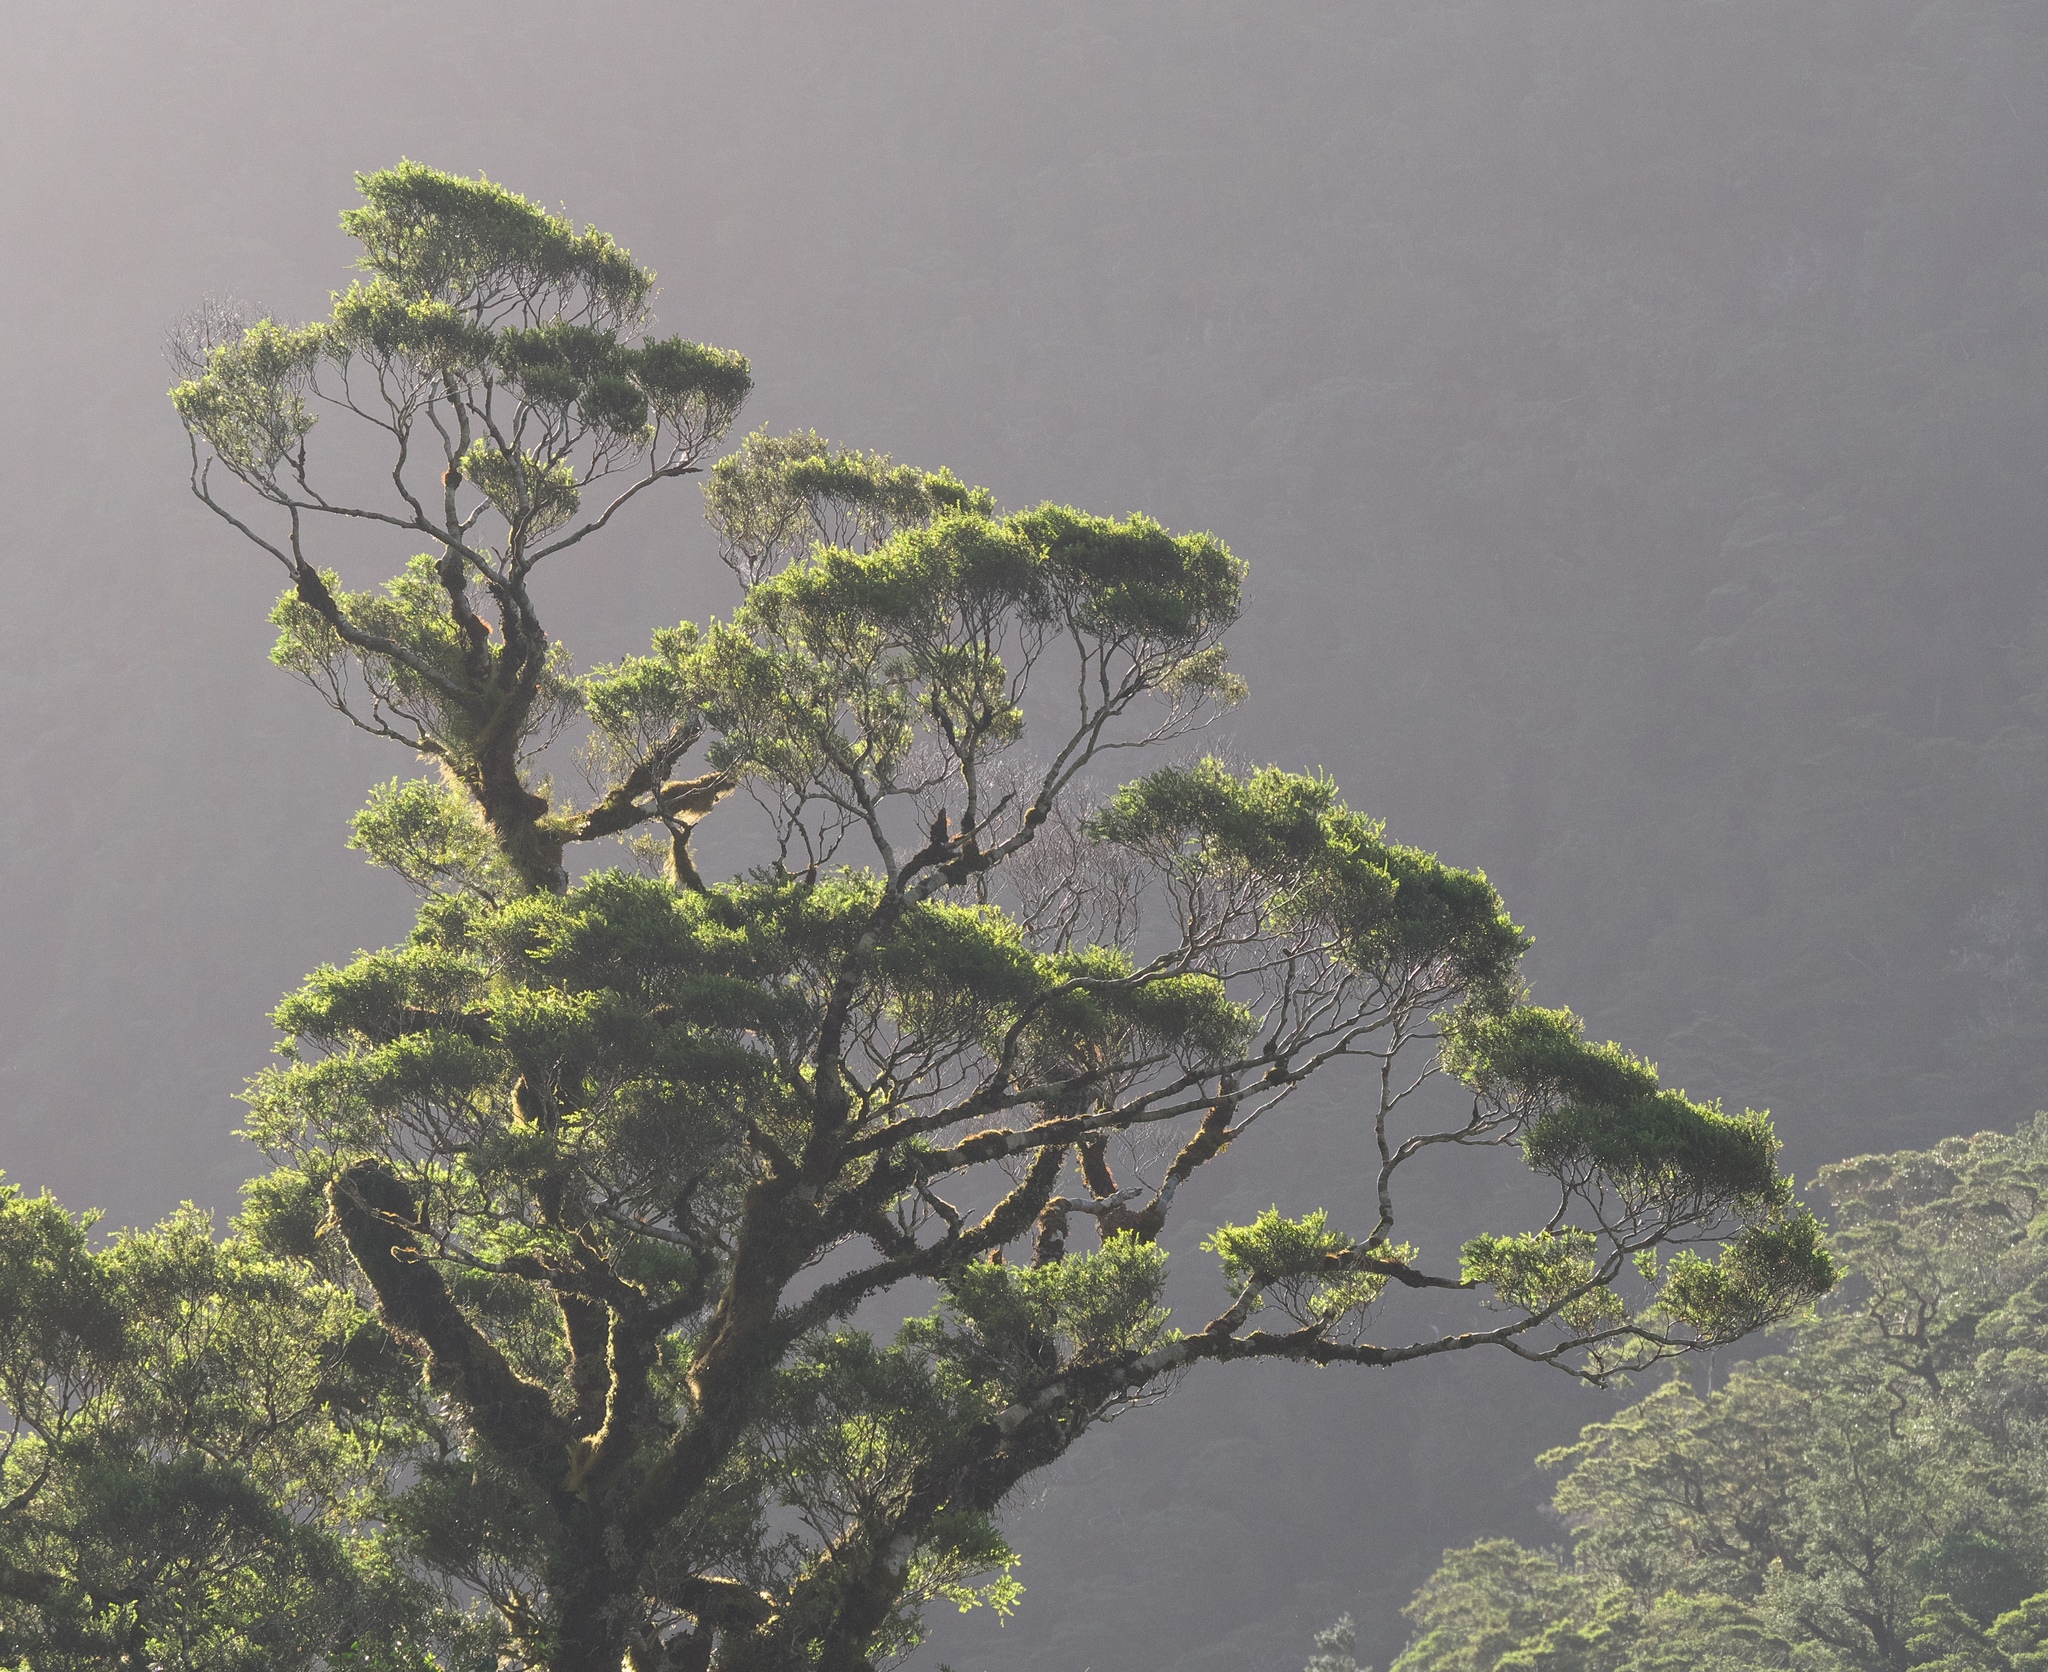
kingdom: Plantae
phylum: Tracheophyta
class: Magnoliopsida
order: Fagales
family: Nothofagaceae
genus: Nothofagus
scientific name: Nothofagus cliffortioides
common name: Mountain beech
